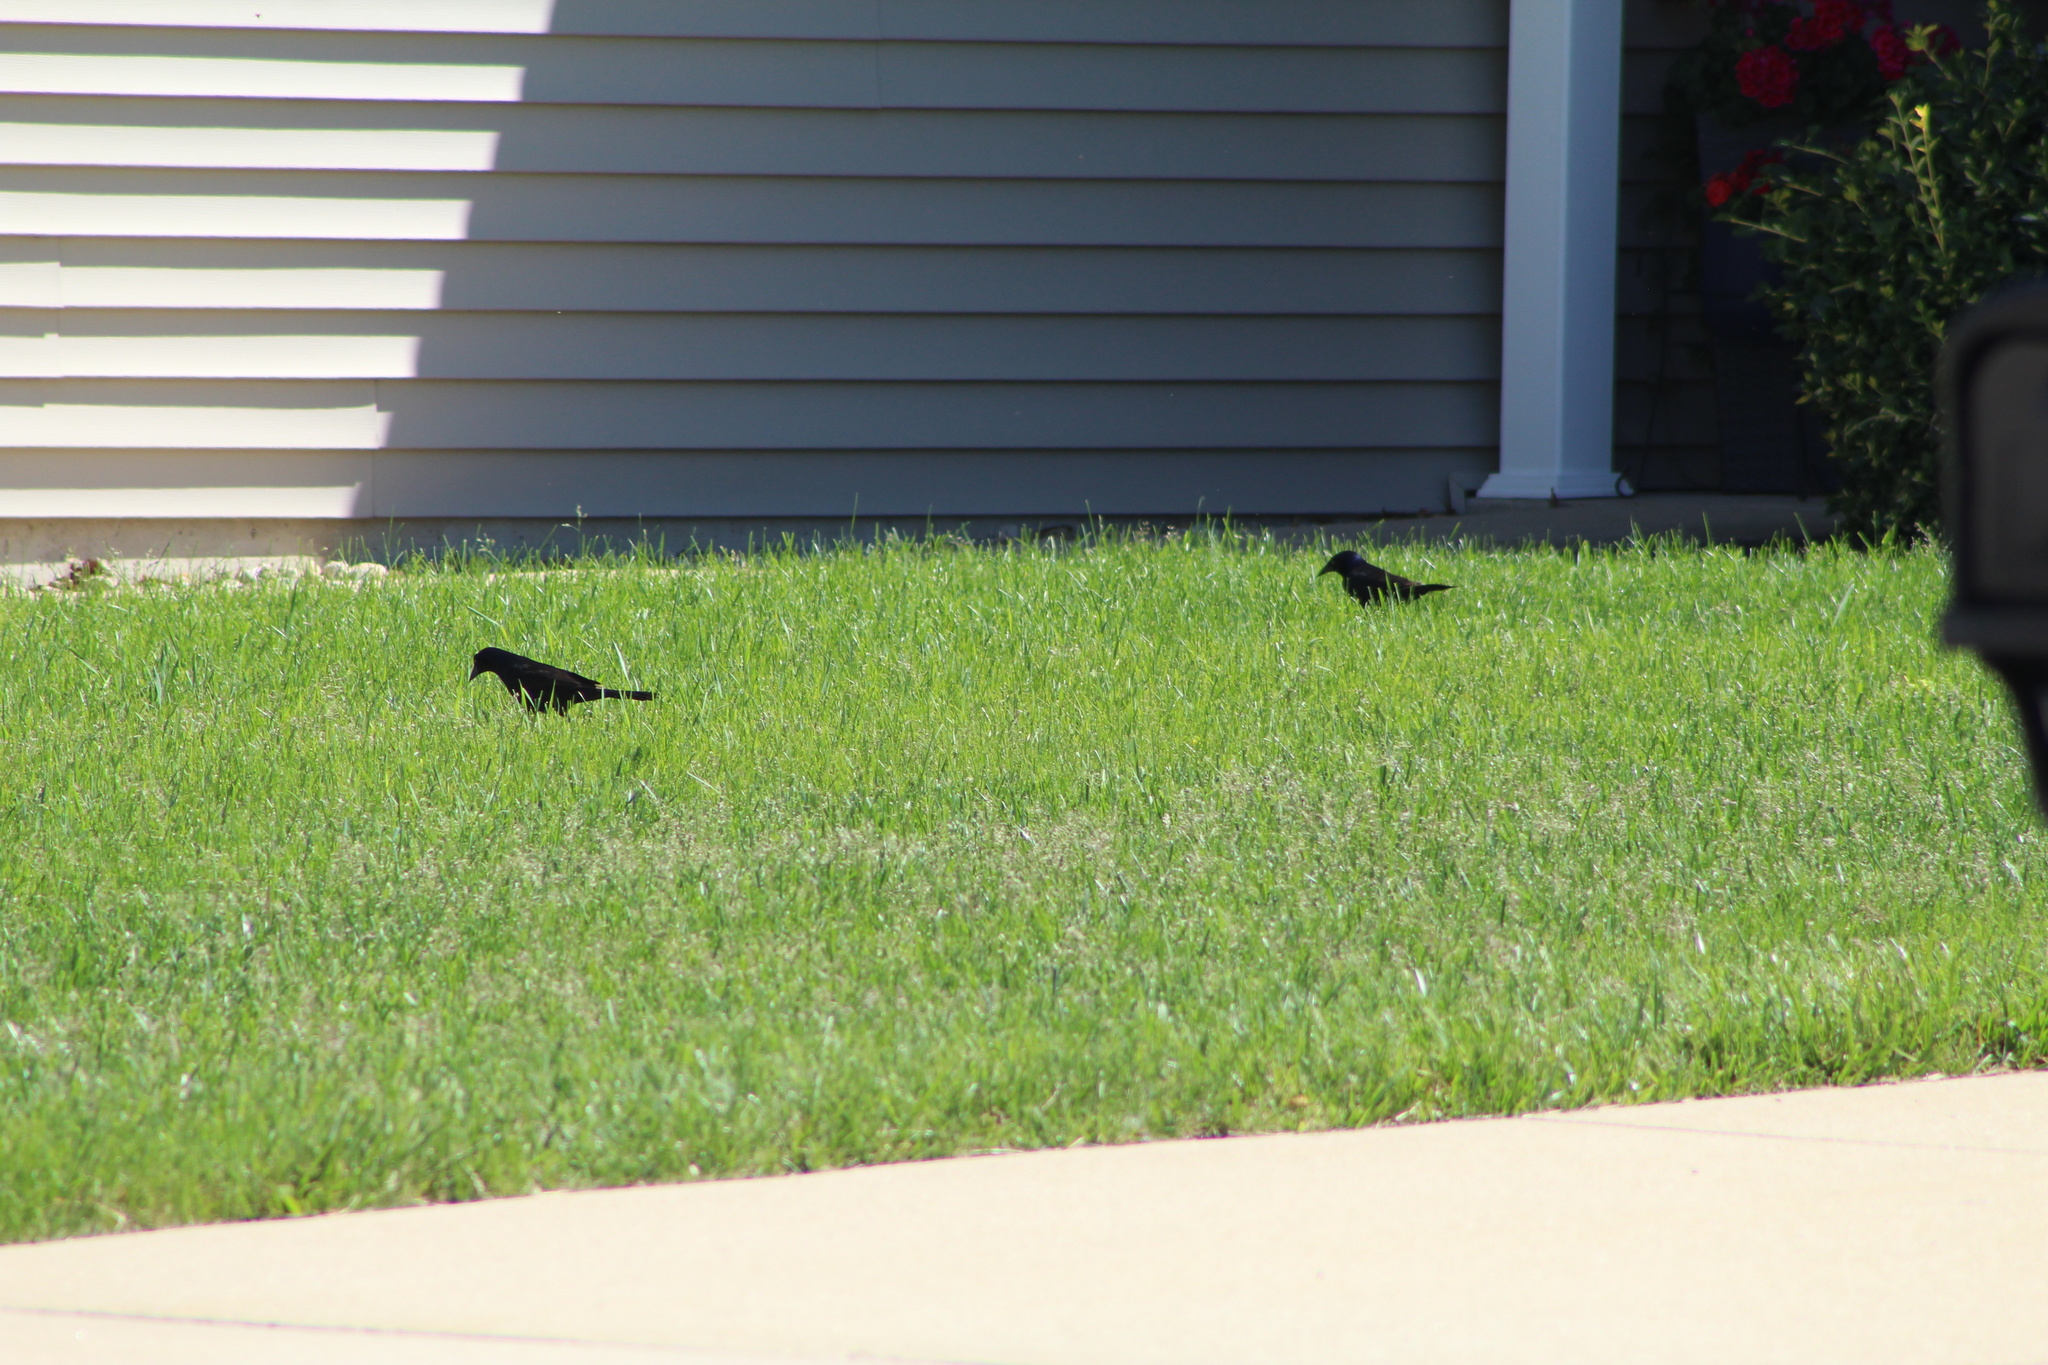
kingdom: Animalia
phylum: Chordata
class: Aves
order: Passeriformes
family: Icteridae
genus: Quiscalus
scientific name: Quiscalus quiscula
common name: Common grackle
